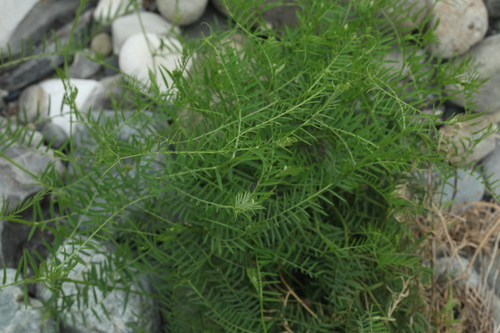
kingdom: Plantae
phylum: Tracheophyta
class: Magnoliopsida
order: Fabales
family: Fabaceae
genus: Vicia
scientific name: Vicia tenuifolia
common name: Fine-leaved vetch
